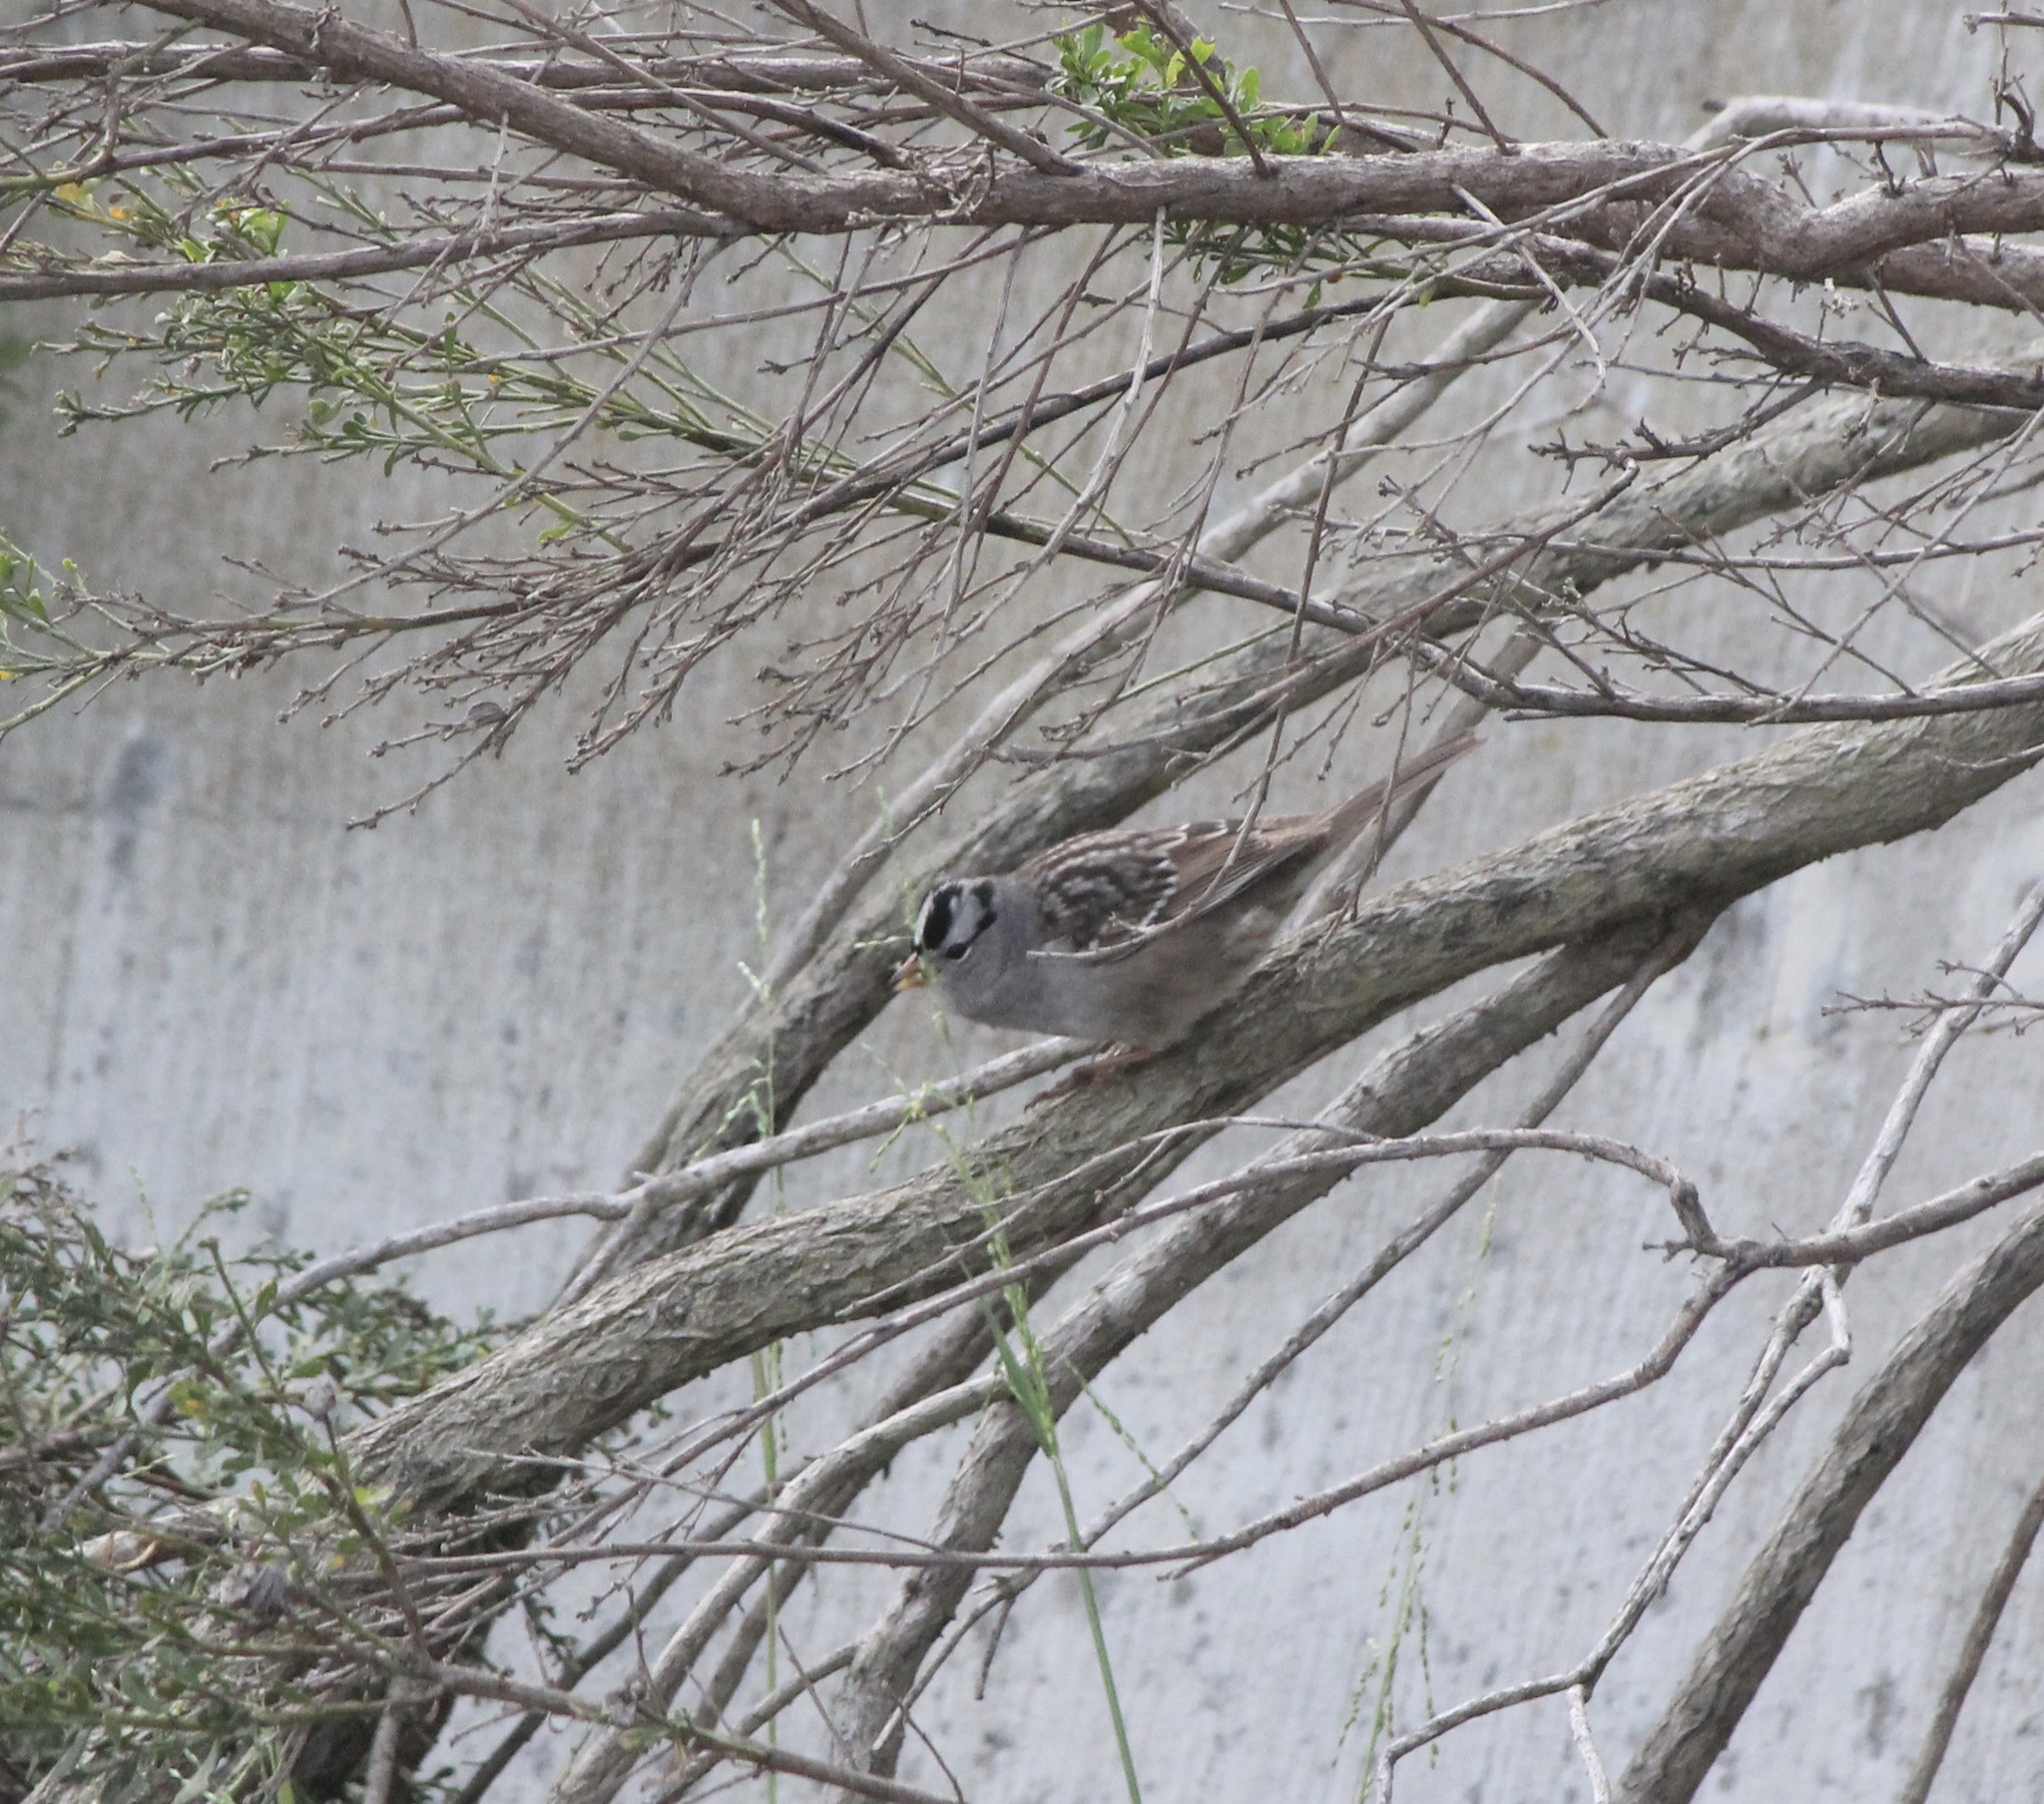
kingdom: Animalia
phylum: Chordata
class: Aves
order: Passeriformes
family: Passerellidae
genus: Zonotrichia
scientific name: Zonotrichia leucophrys
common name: White-crowned sparrow
